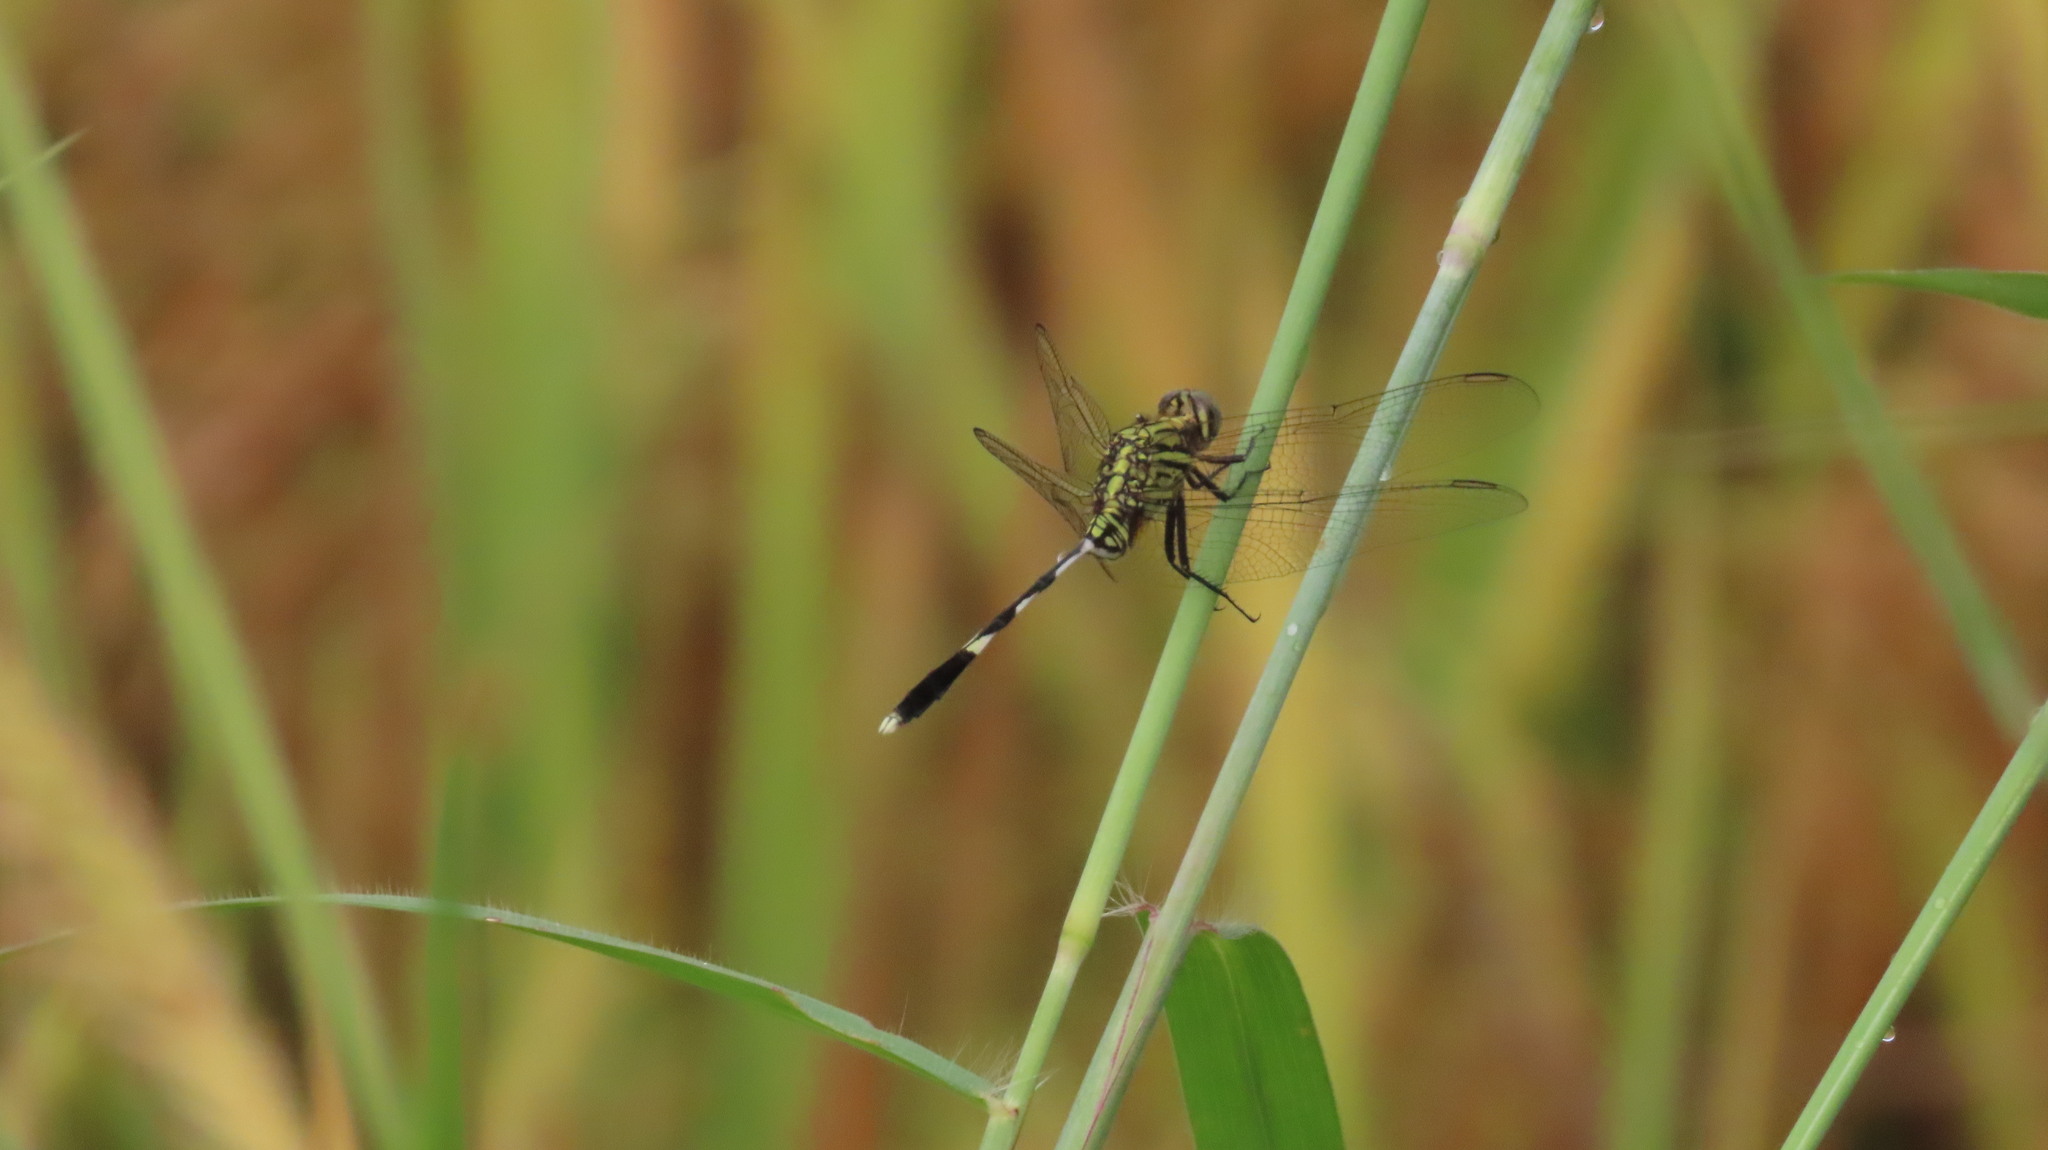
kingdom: Animalia
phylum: Arthropoda
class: Insecta
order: Odonata
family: Libellulidae
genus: Orthetrum
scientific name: Orthetrum sabina
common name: Slender skimmer
